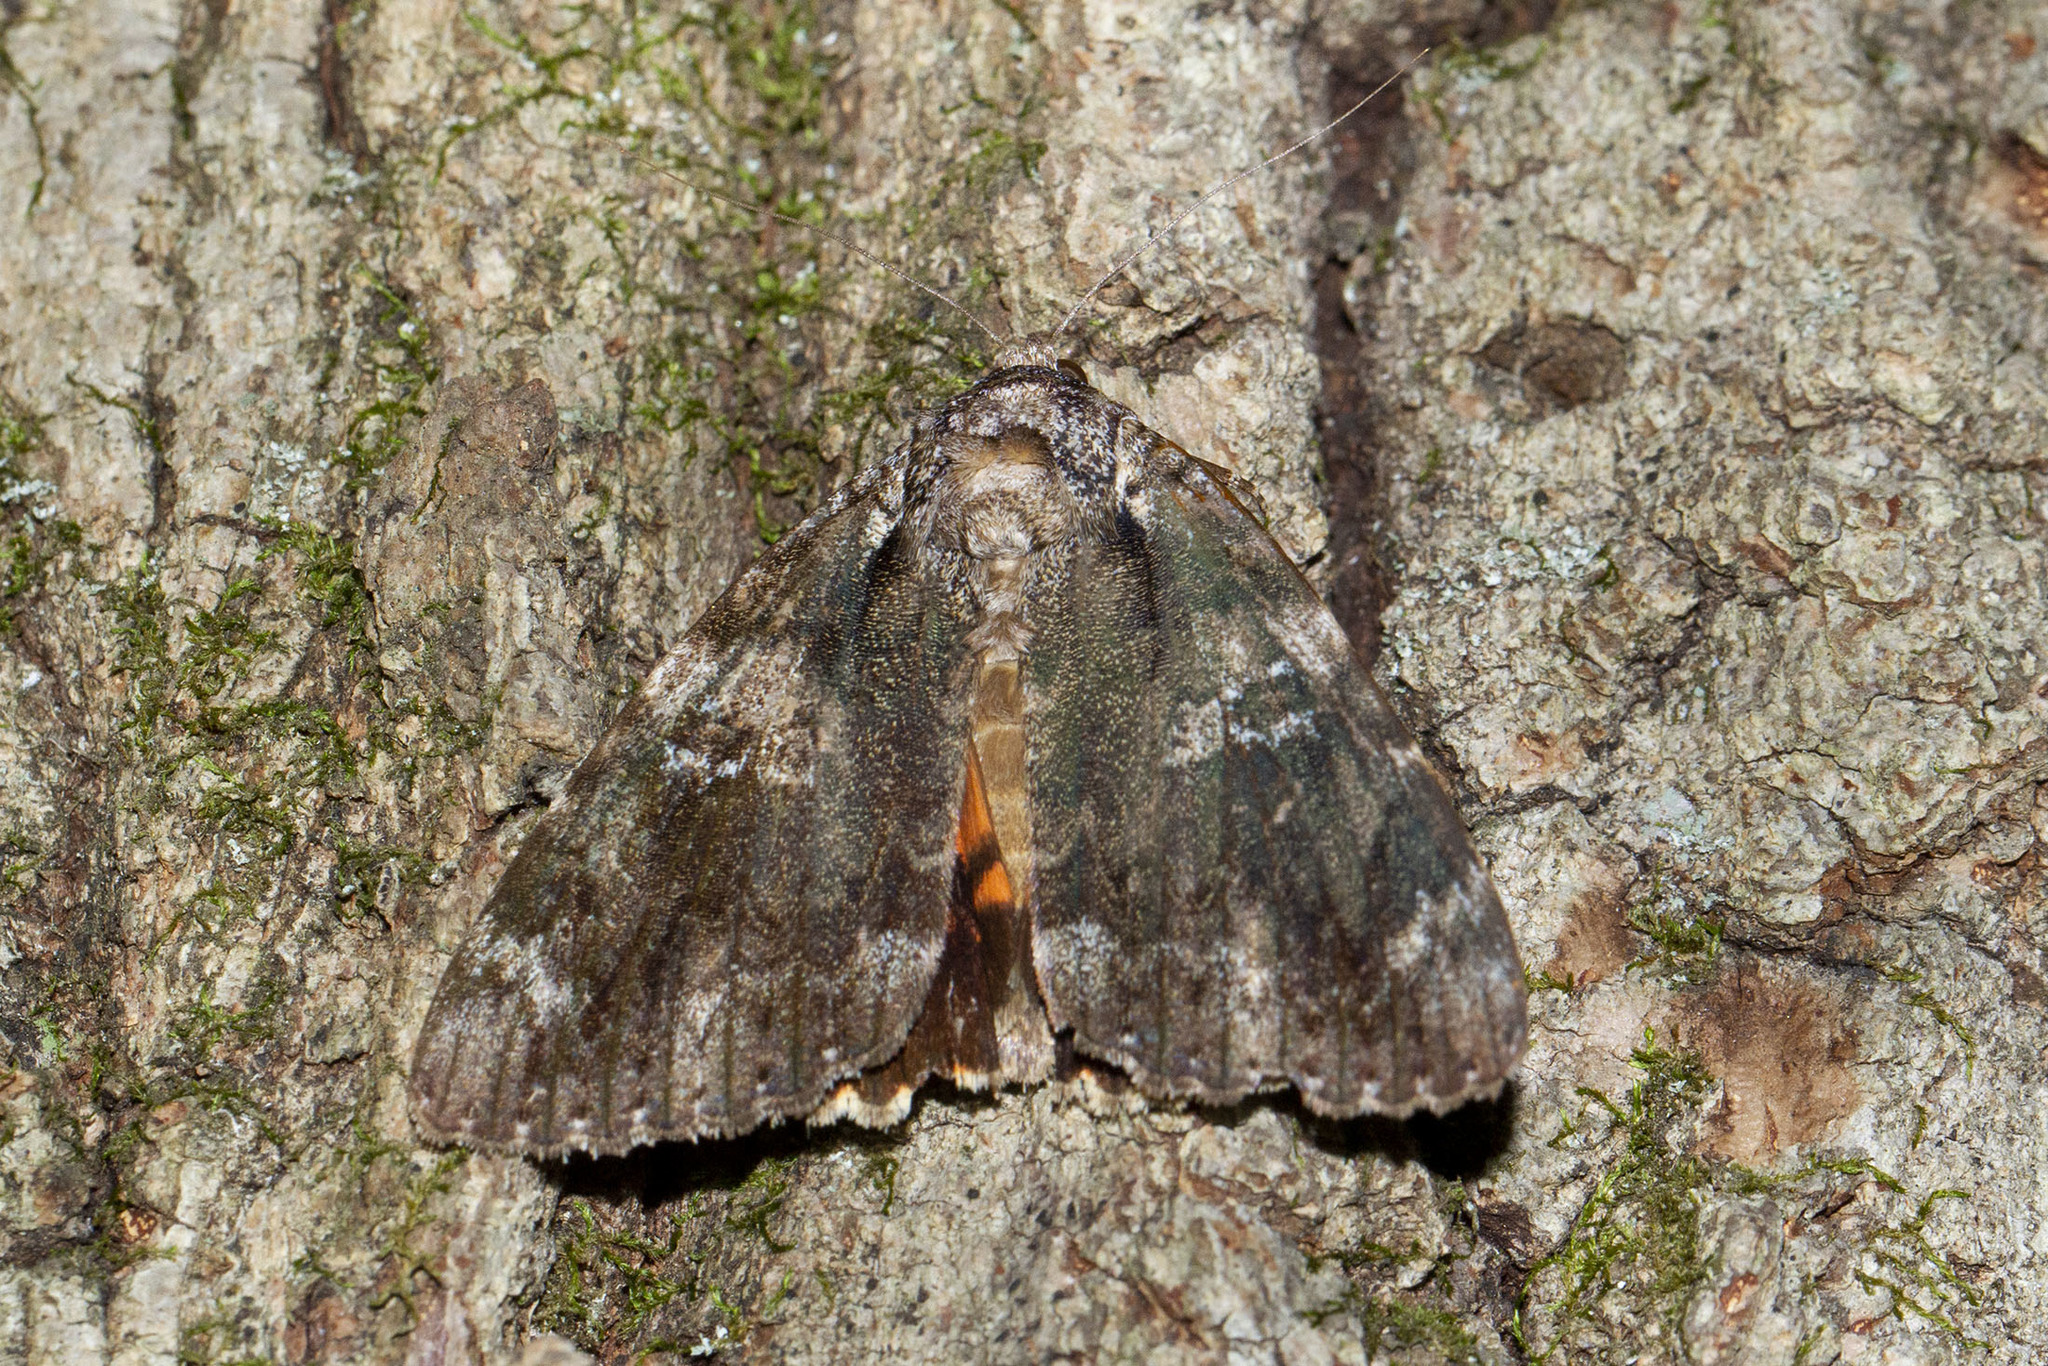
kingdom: Animalia
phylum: Arthropoda
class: Insecta
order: Lepidoptera
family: Erebidae
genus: Catocala
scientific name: Catocala ilia
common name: Ilia underwing
